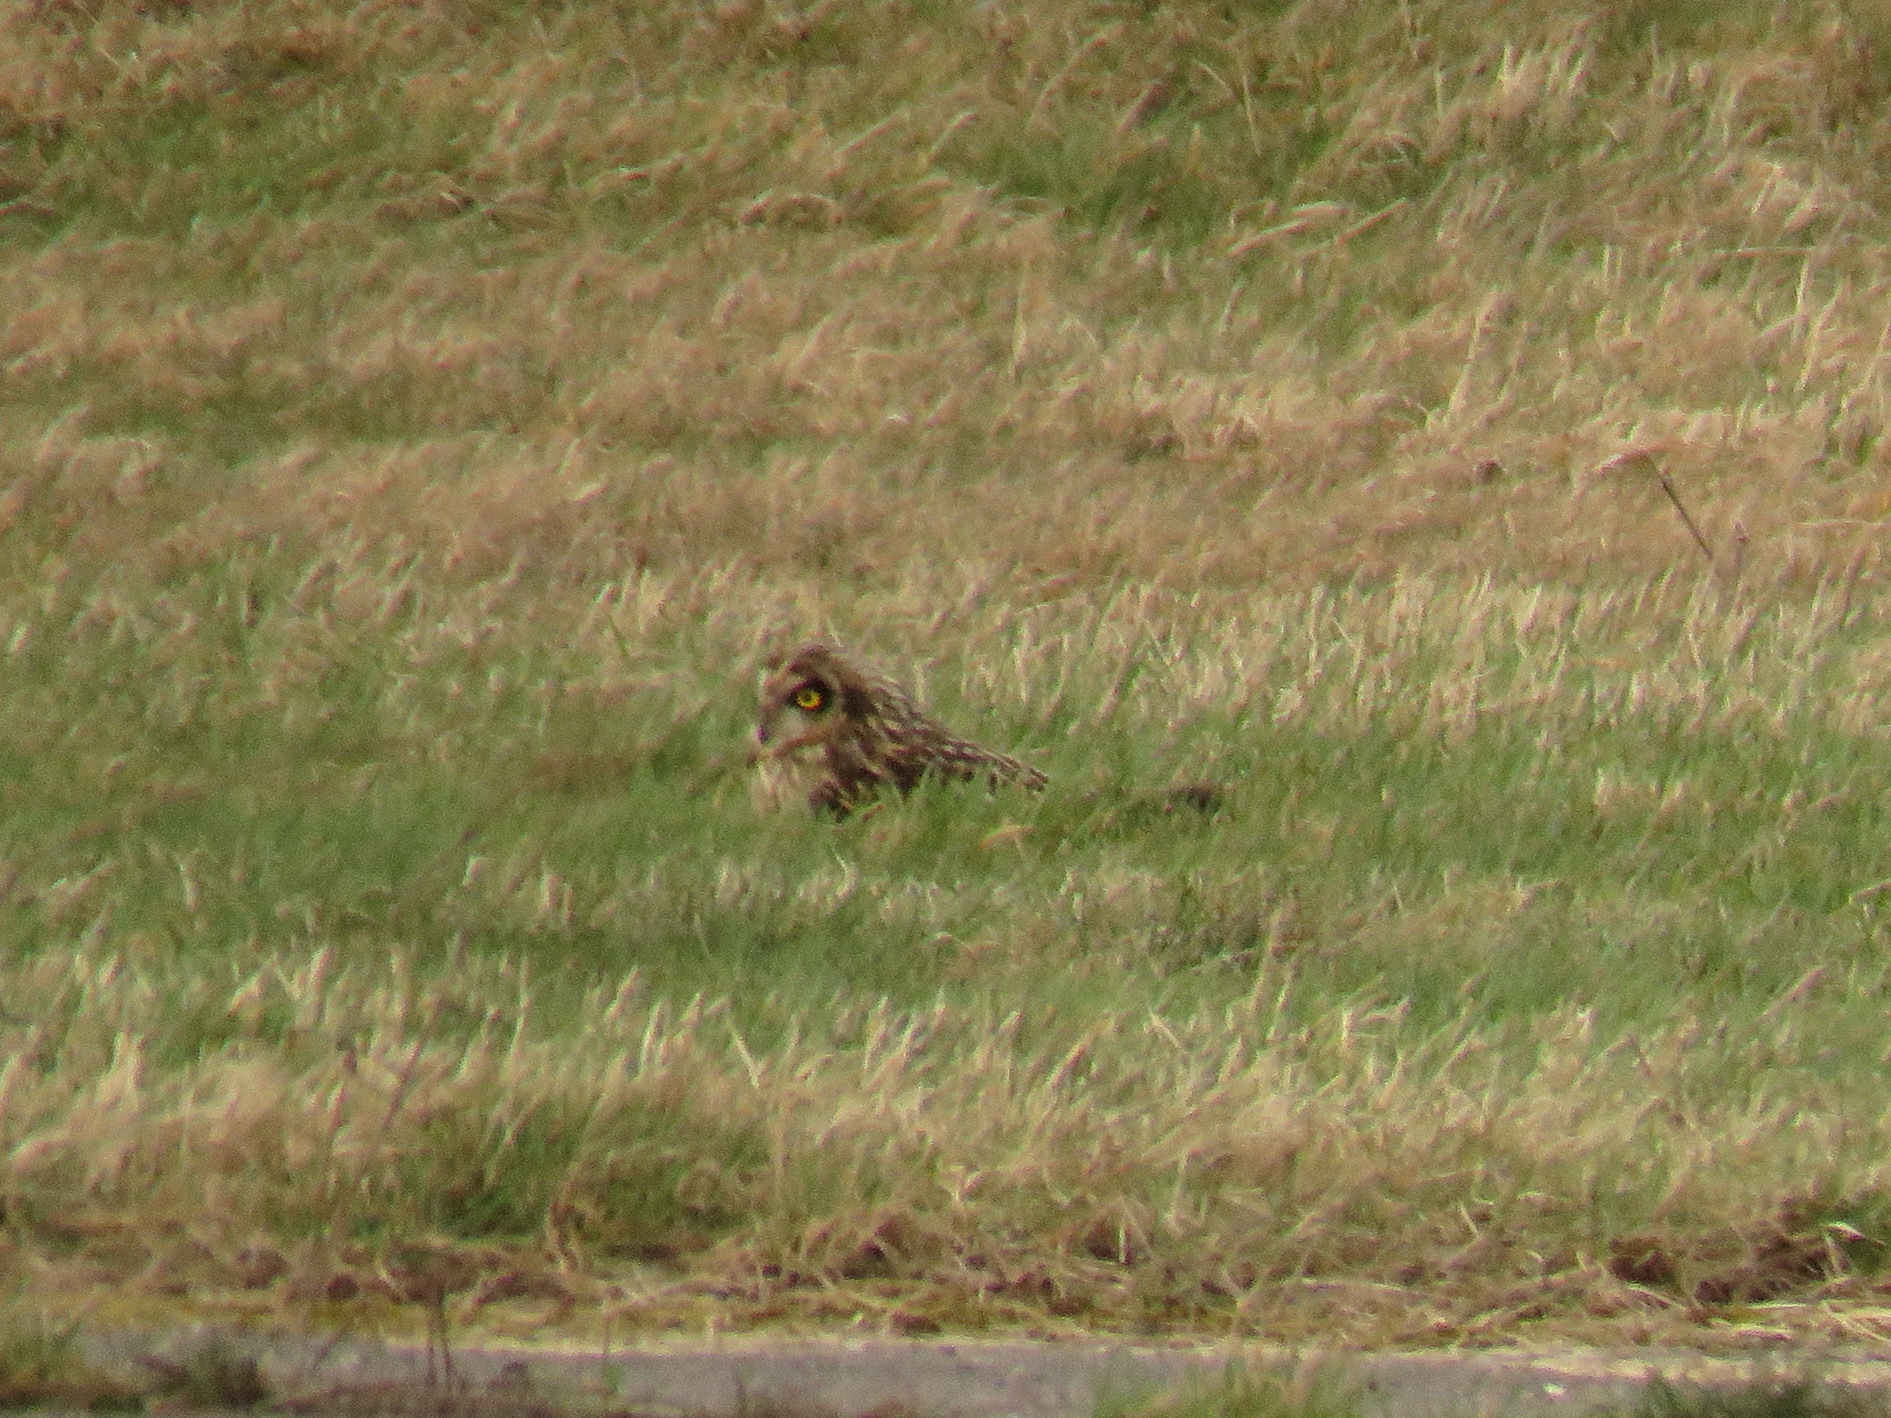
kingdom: Animalia
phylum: Chordata
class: Aves
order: Strigiformes
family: Strigidae
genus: Asio
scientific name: Asio flammeus
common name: Short-eared owl
